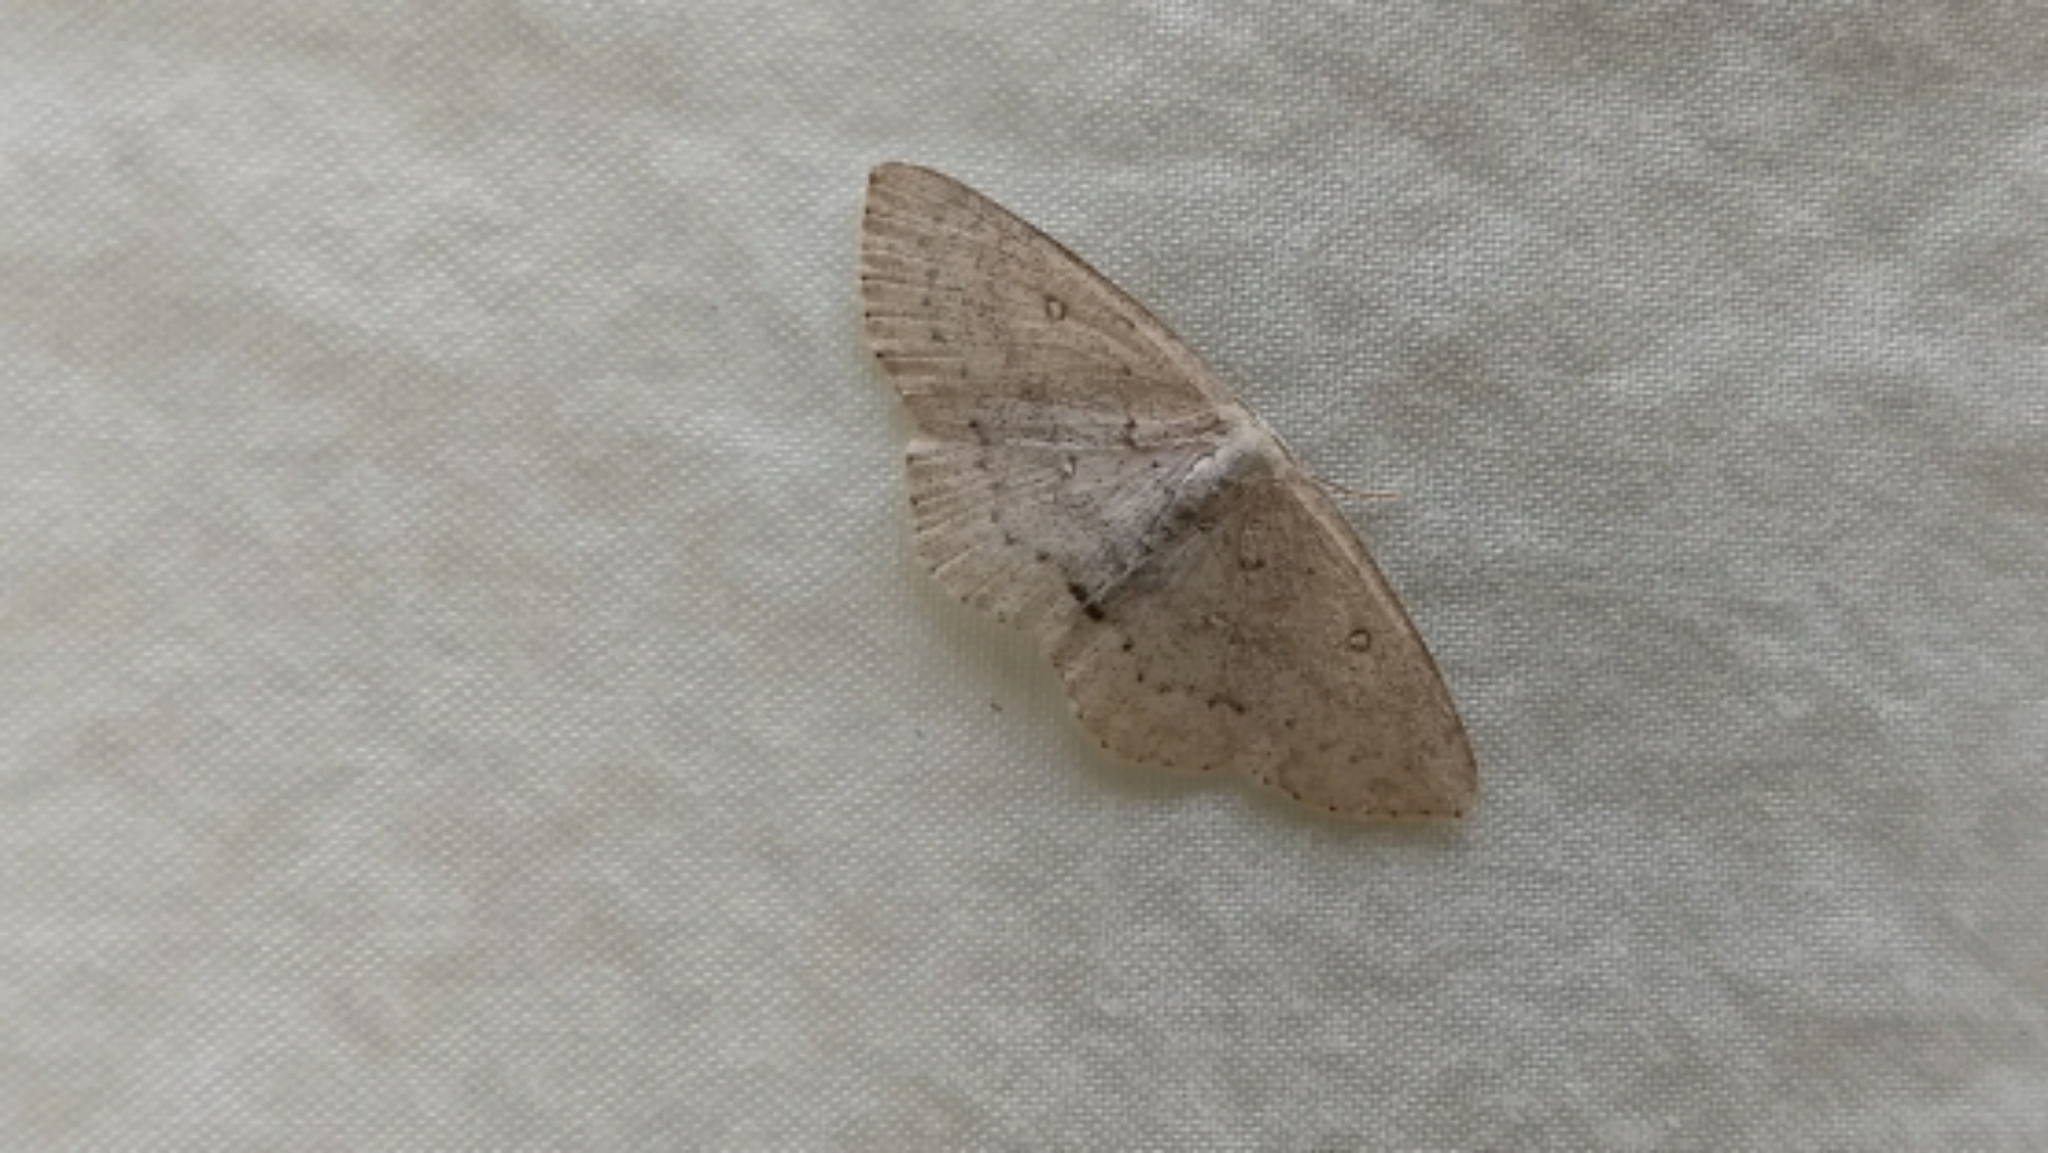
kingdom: Animalia
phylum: Arthropoda
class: Insecta
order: Lepidoptera
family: Geometridae
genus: Cyclophora
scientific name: Cyclophora pendulinaria
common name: Sweet fern geometer
